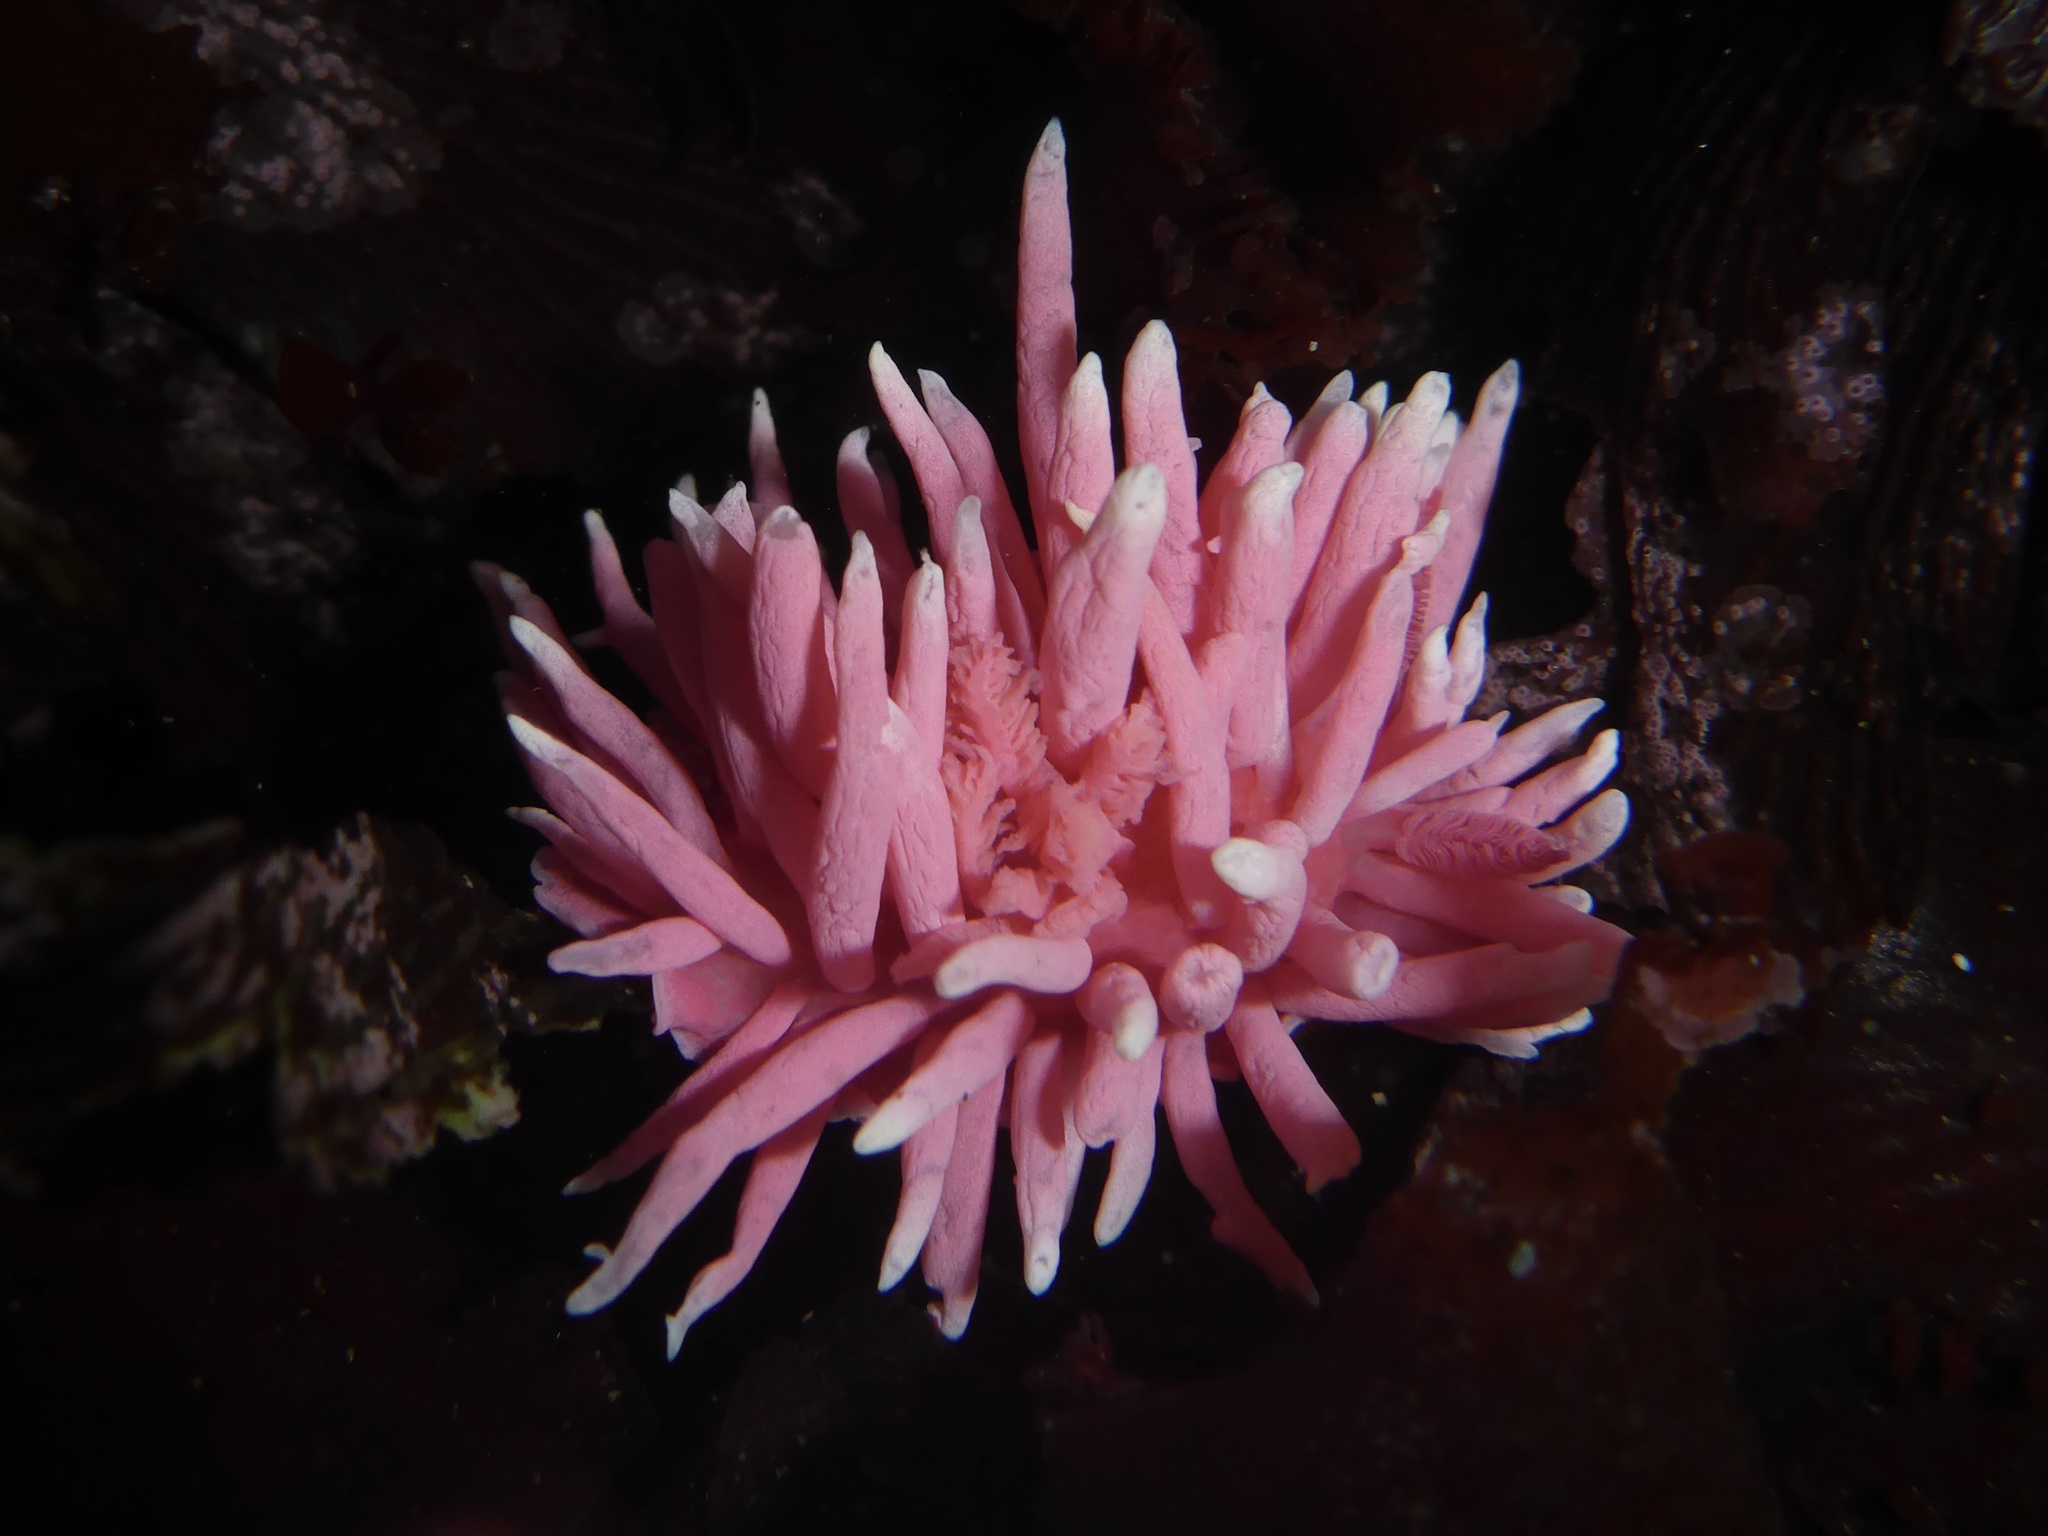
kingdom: Animalia
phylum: Mollusca
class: Gastropoda
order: Nudibranchia
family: Goniodorididae
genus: Okenia
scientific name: Okenia
